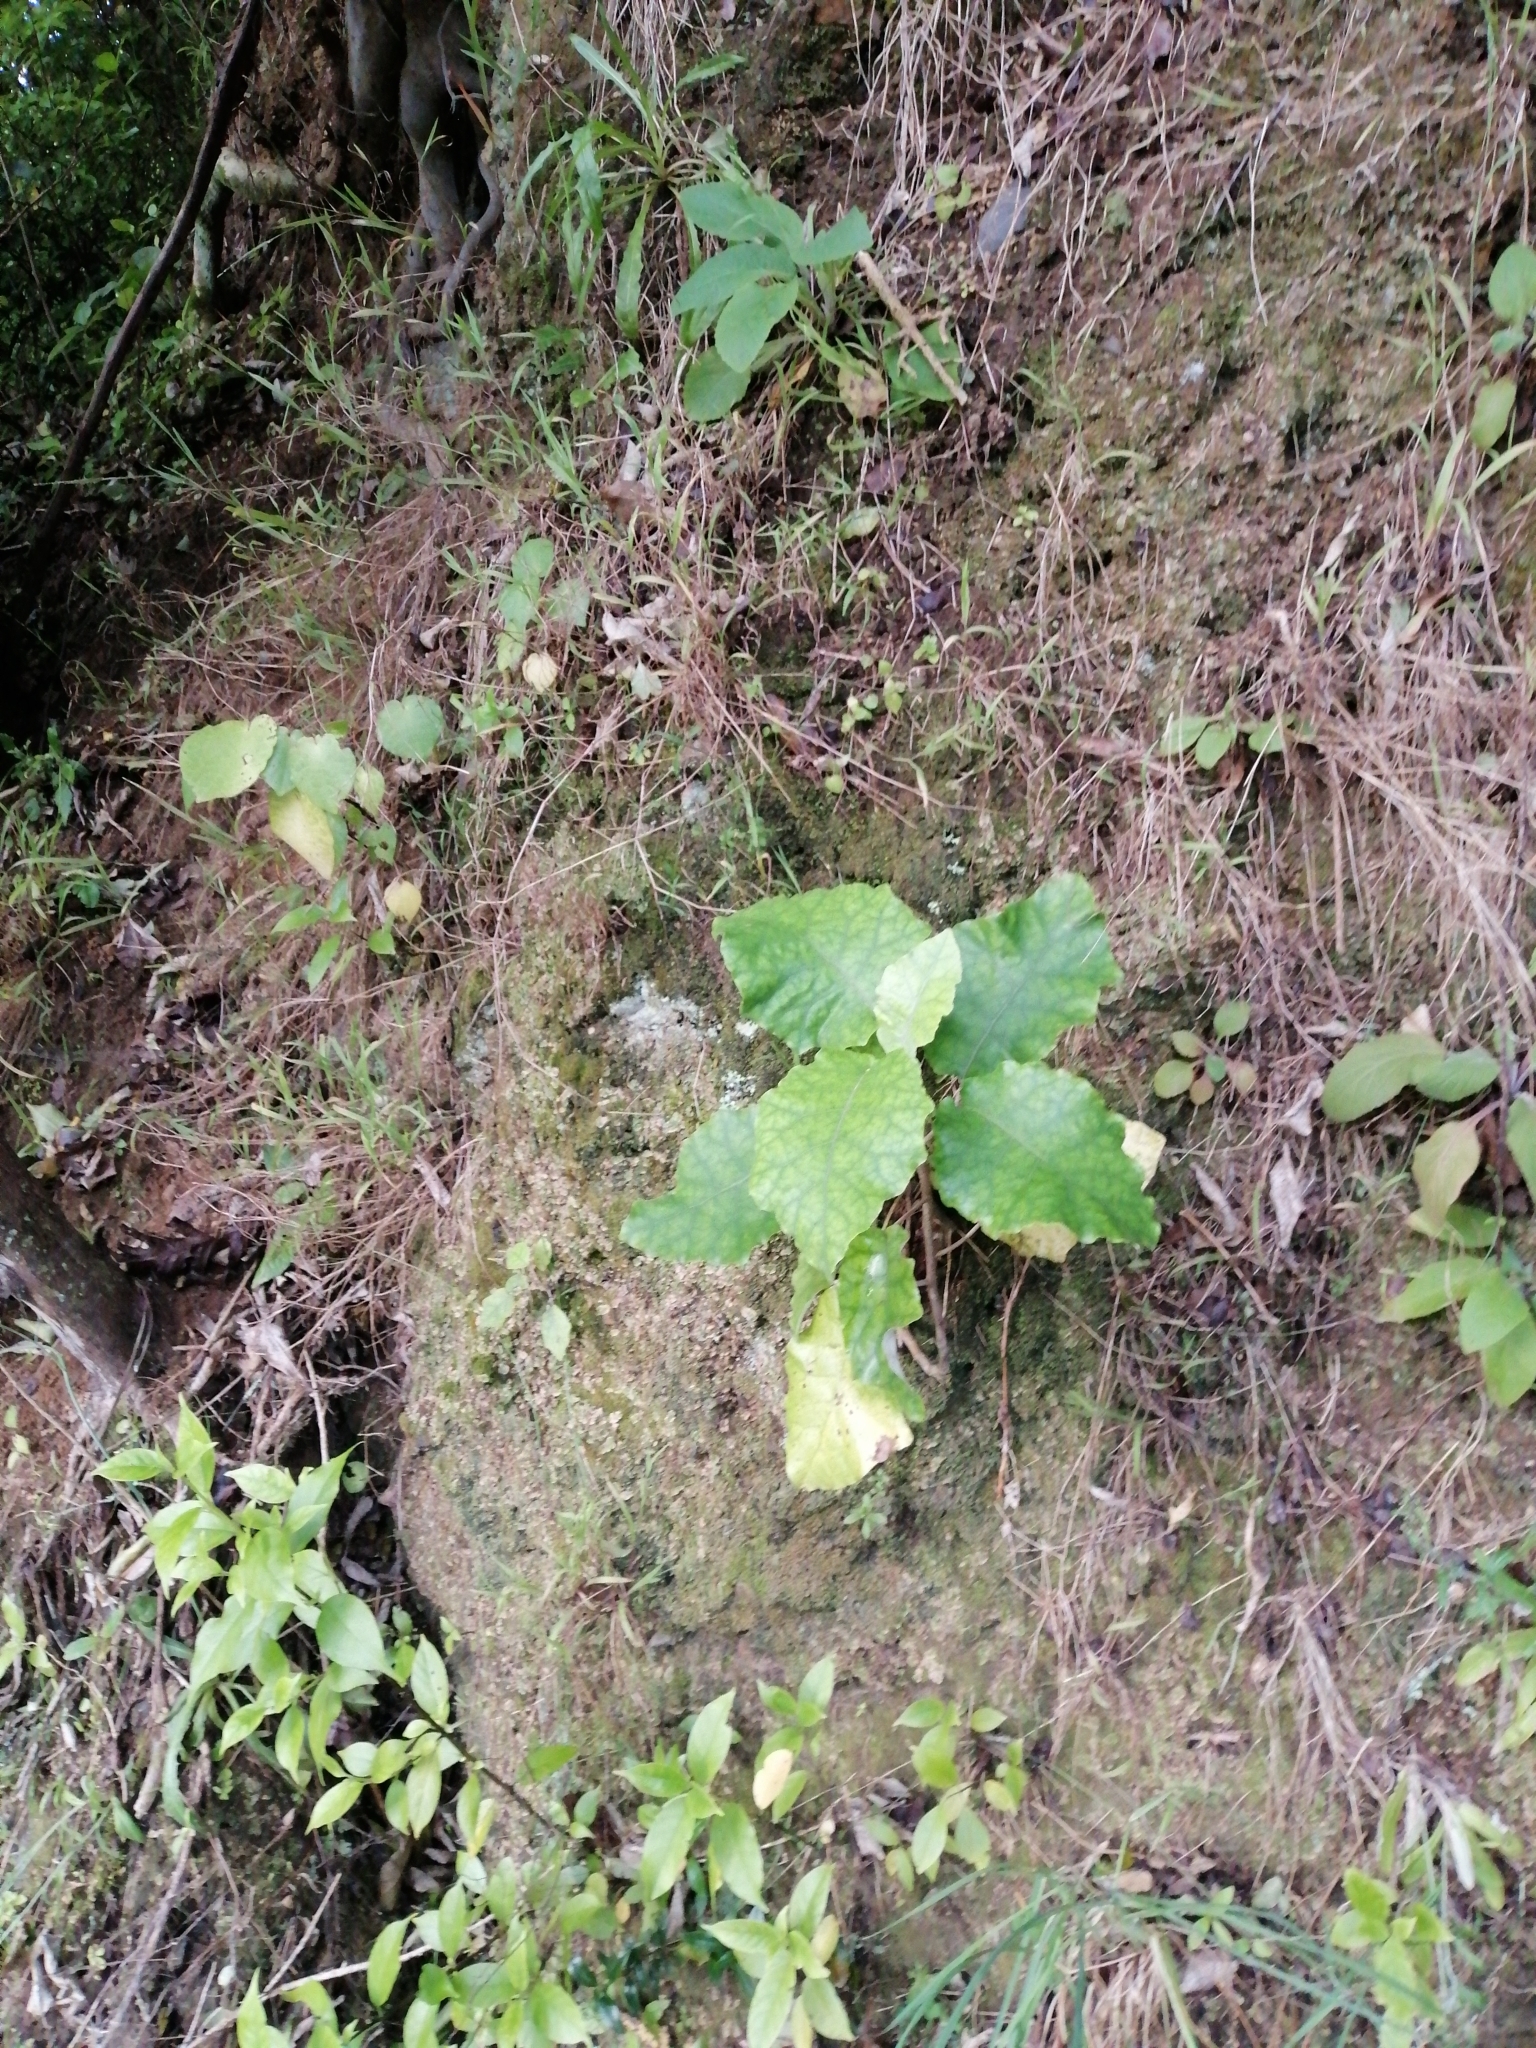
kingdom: Plantae
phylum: Tracheophyta
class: Magnoliopsida
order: Asterales
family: Asteraceae
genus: Brachyglottis
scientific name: Brachyglottis repanda
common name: Hedge ragwort
